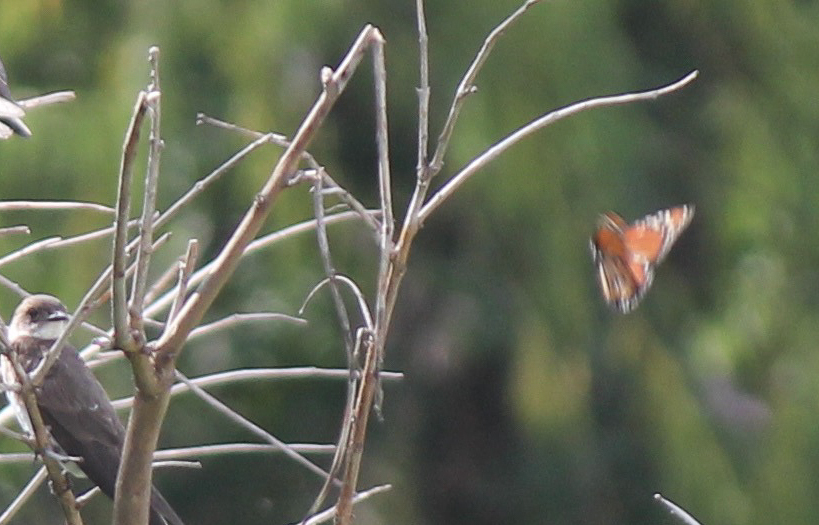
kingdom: Animalia
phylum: Arthropoda
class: Insecta
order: Lepidoptera
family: Nymphalidae
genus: Danaus
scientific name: Danaus erippus
